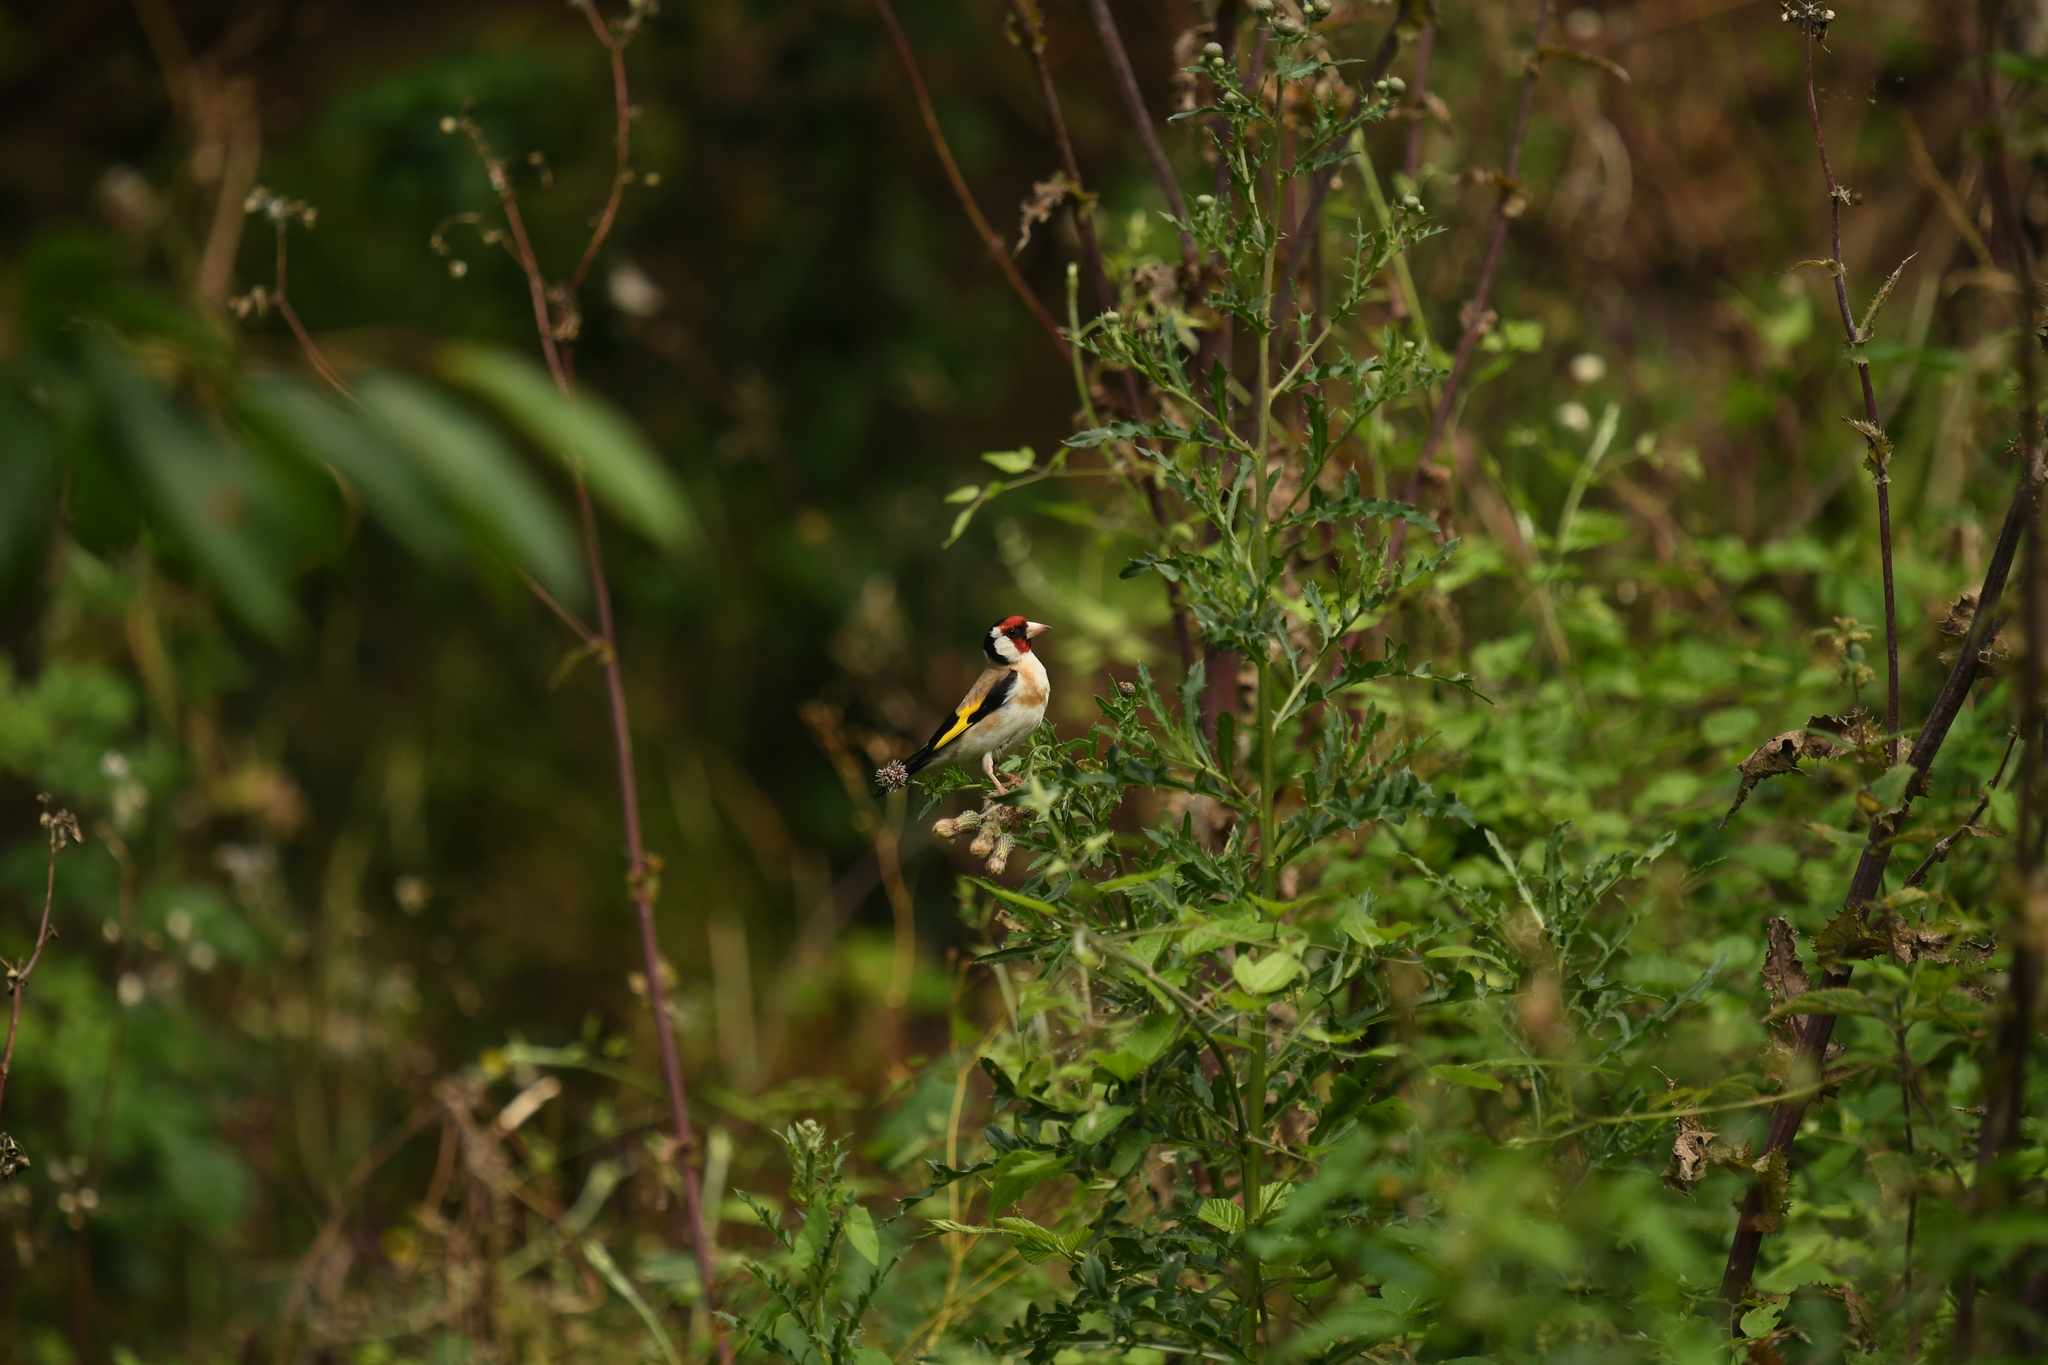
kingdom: Animalia
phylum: Chordata
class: Aves
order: Passeriformes
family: Fringillidae
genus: Carduelis
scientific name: Carduelis carduelis
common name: European goldfinch
